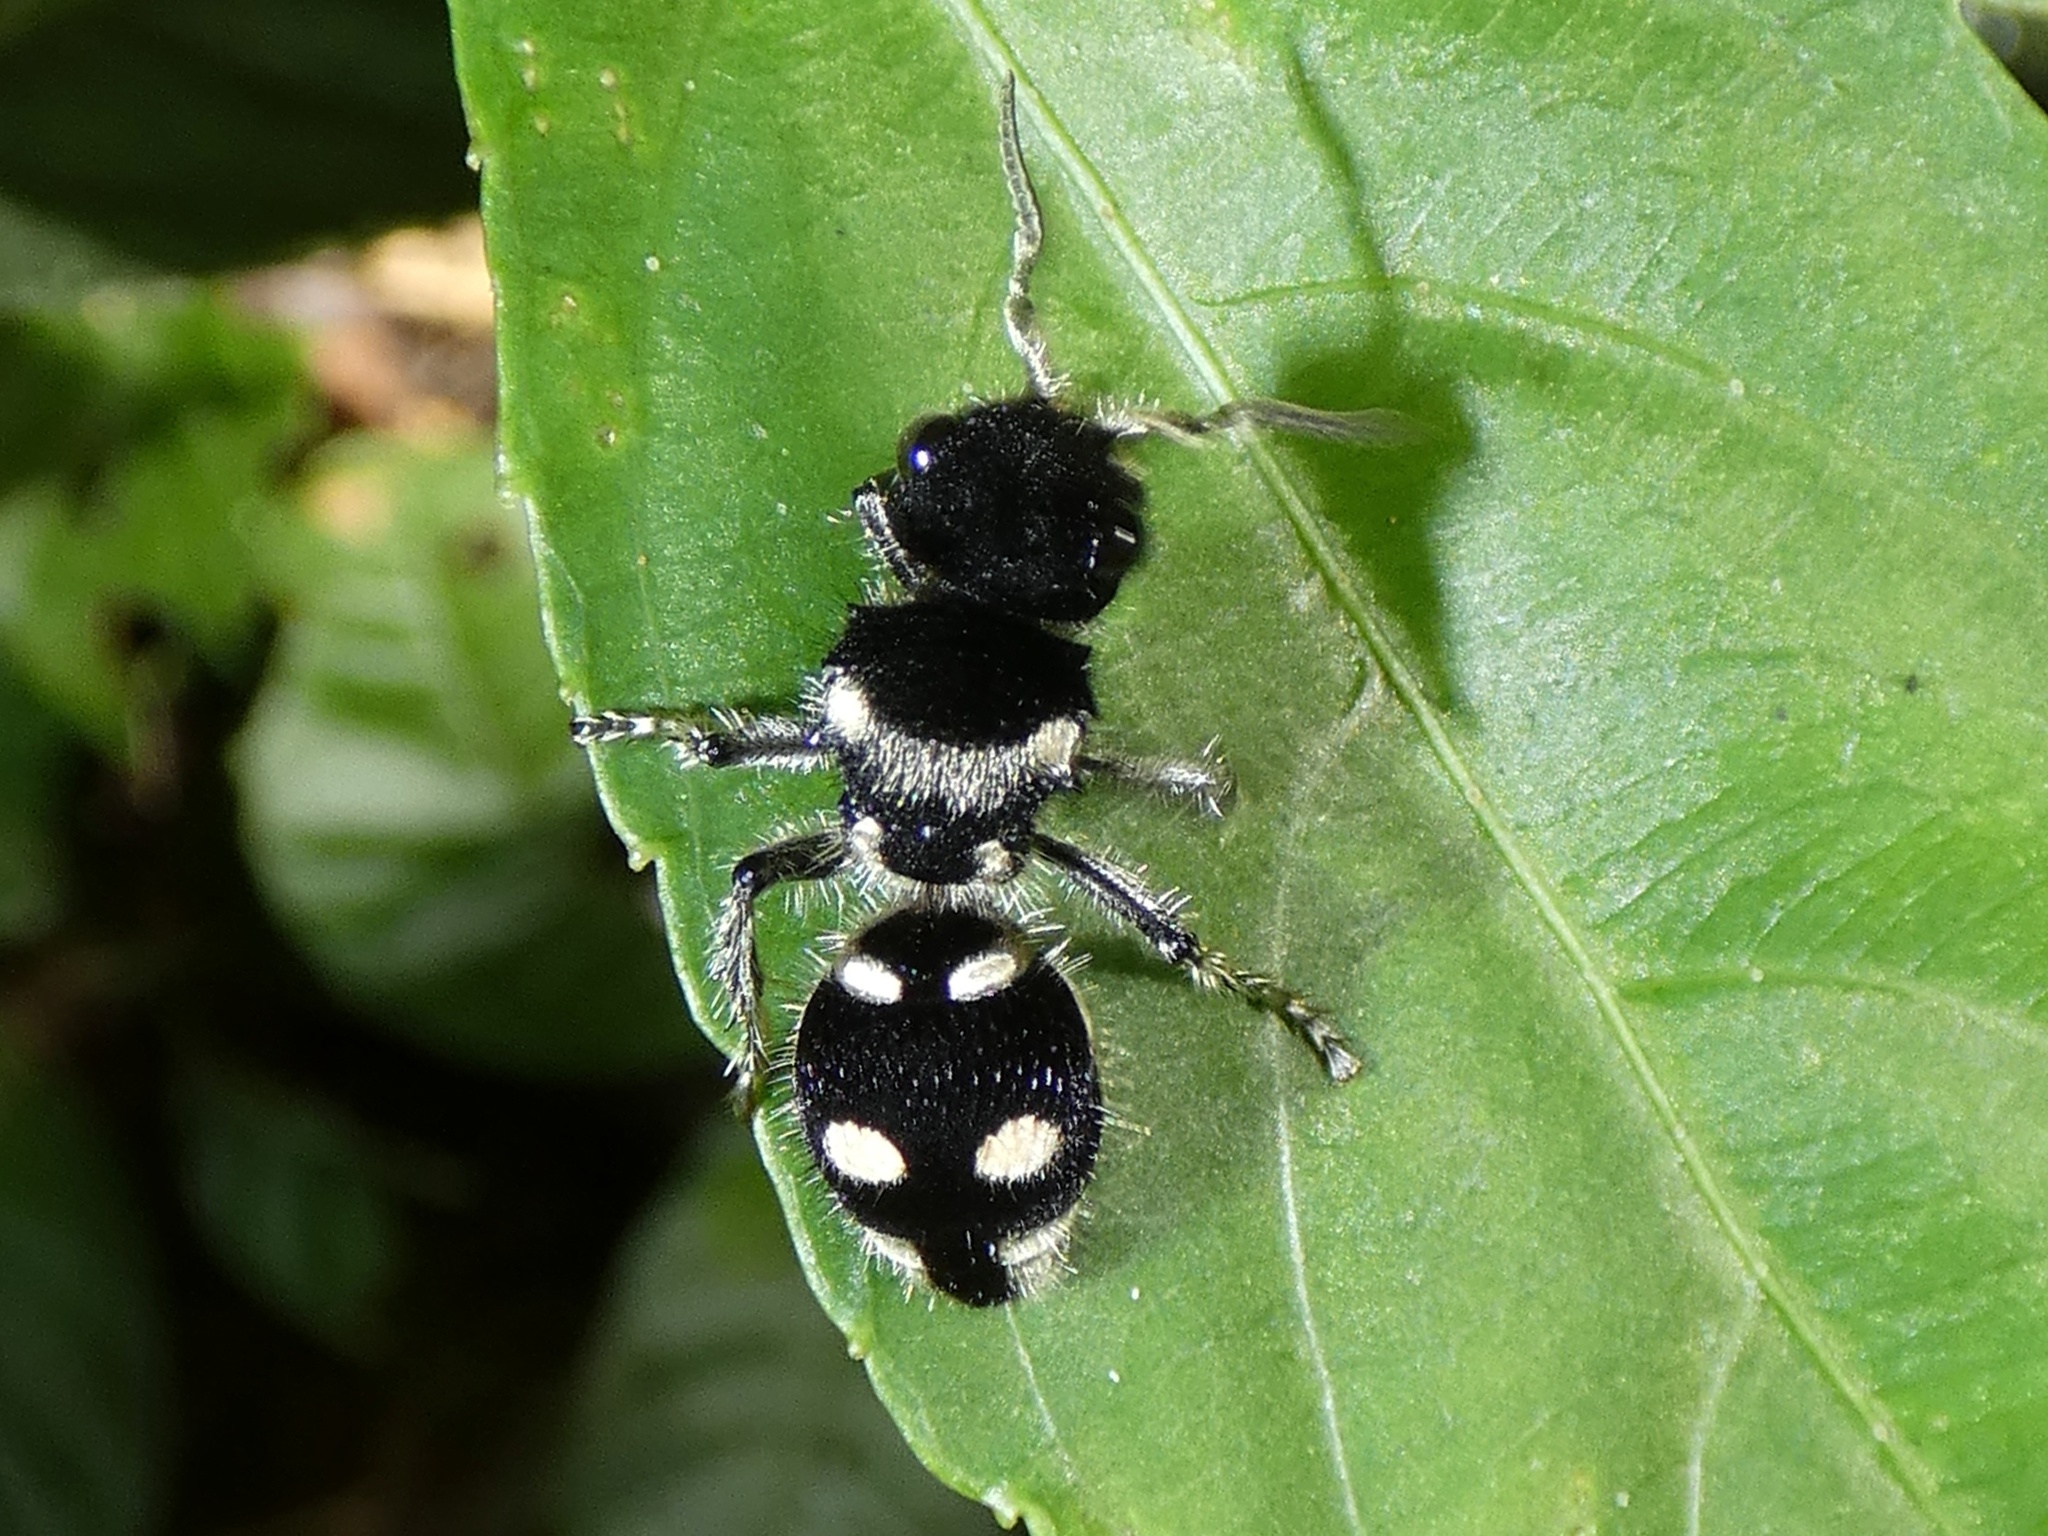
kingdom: Animalia
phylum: Arthropoda
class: Insecta
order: Hymenoptera
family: Mutillidae
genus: Hoplomutilla
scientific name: Hoplomutilla
